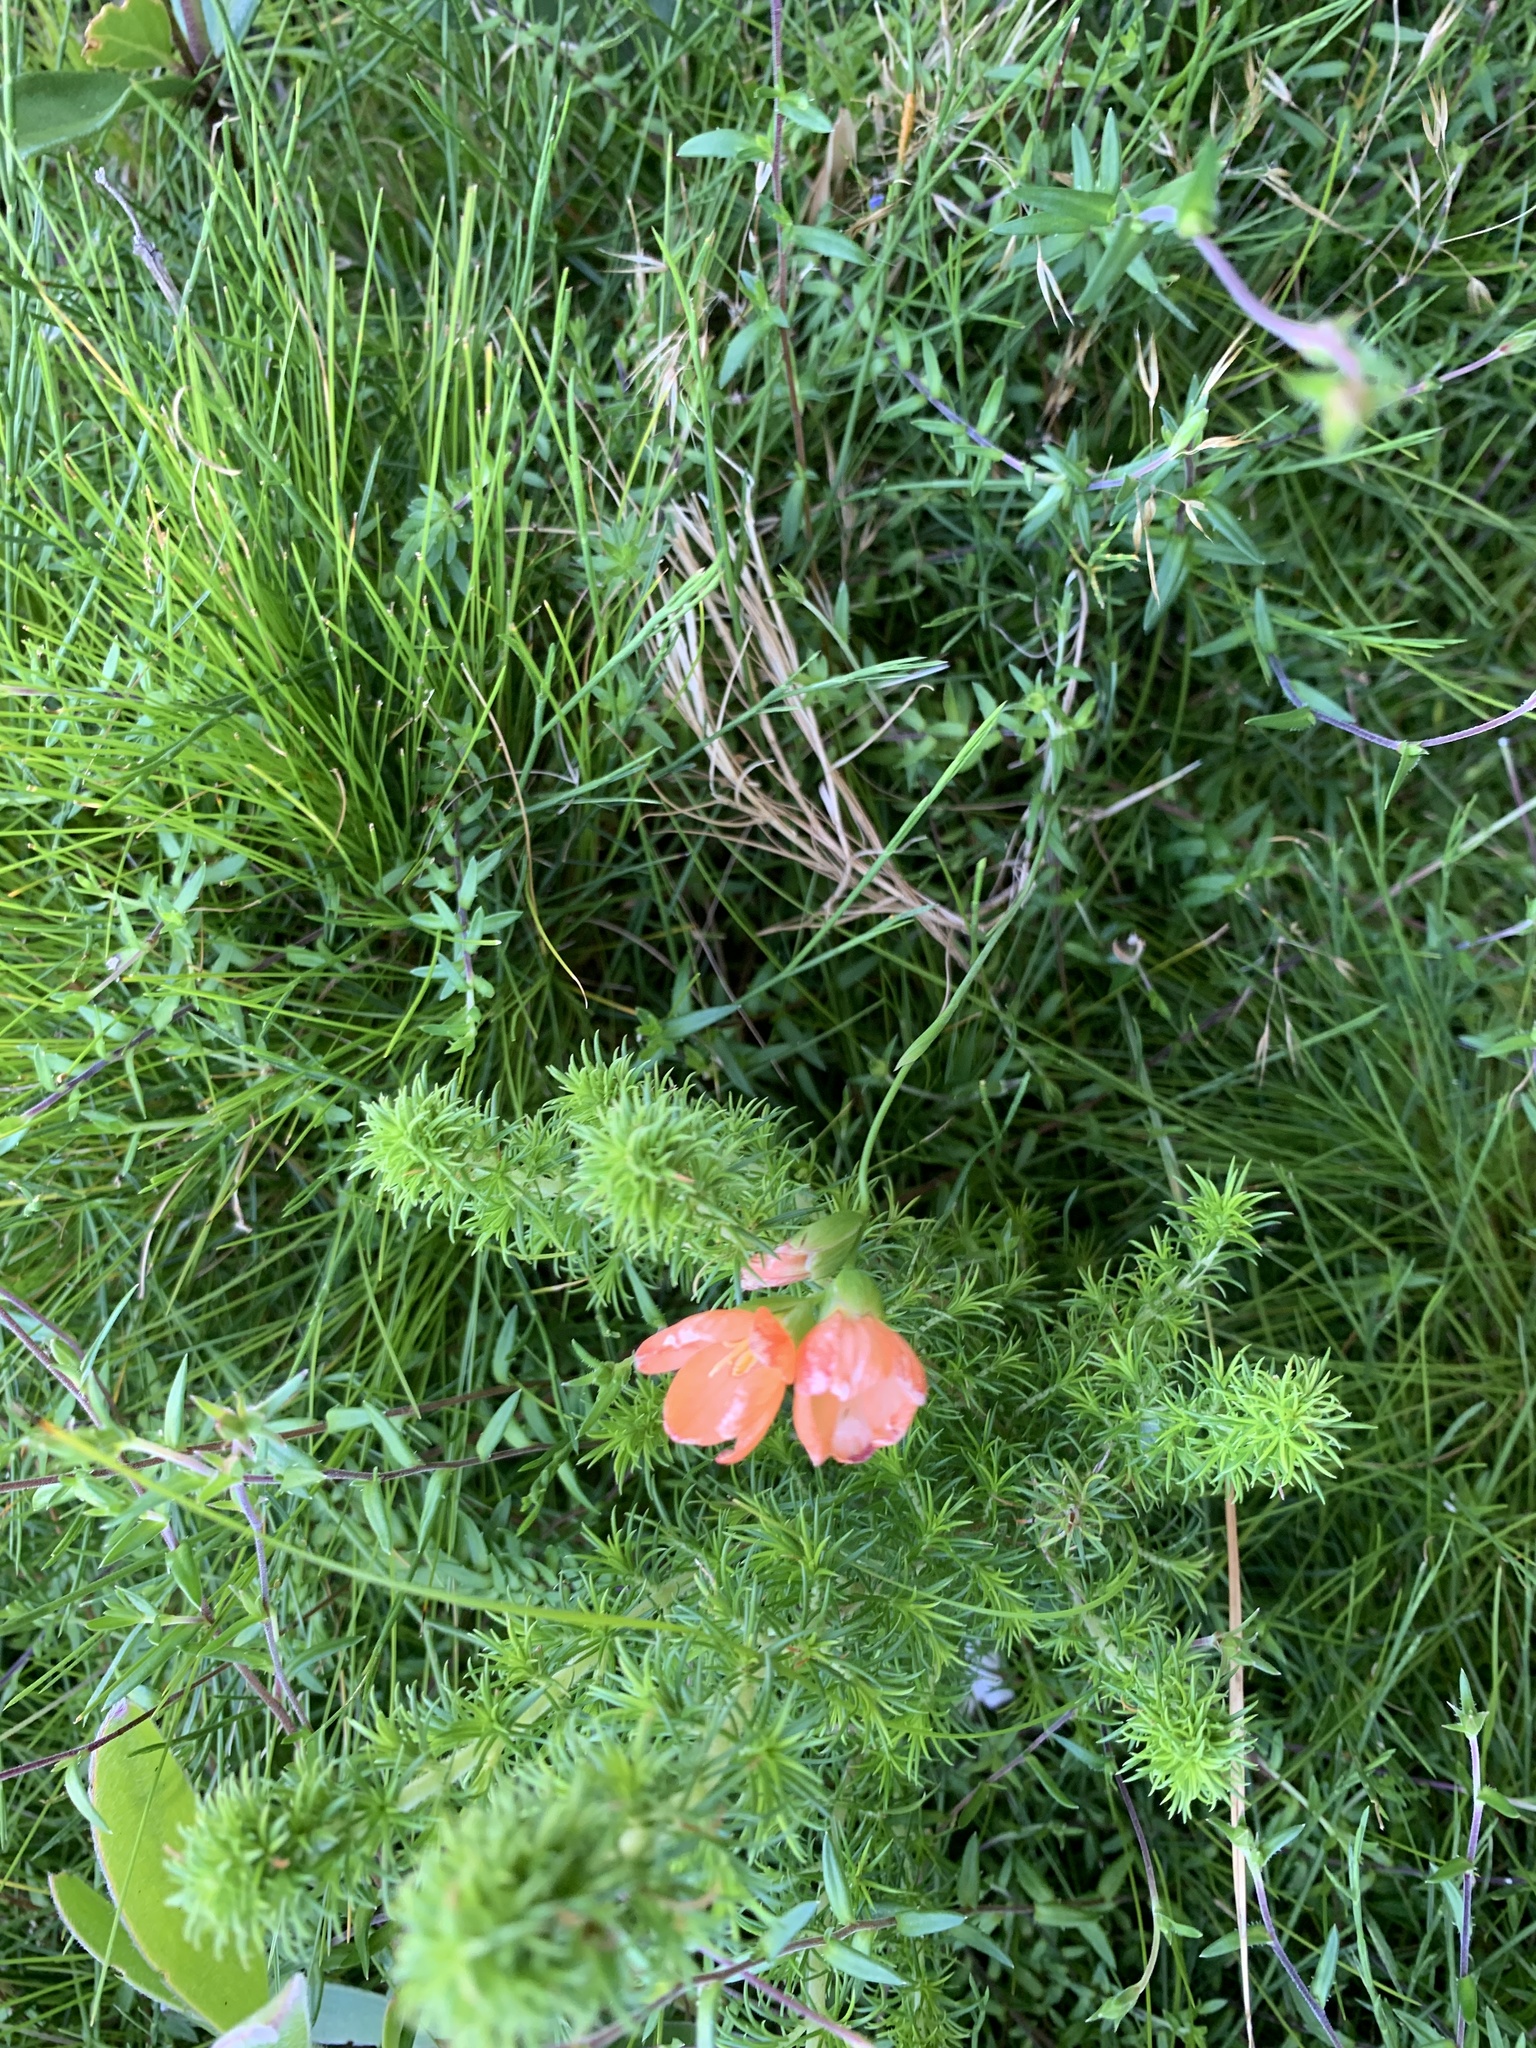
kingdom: Plantae
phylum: Tracheophyta
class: Liliopsida
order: Asparagales
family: Iridaceae
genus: Gladiolus
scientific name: Gladiolus brevitubus
